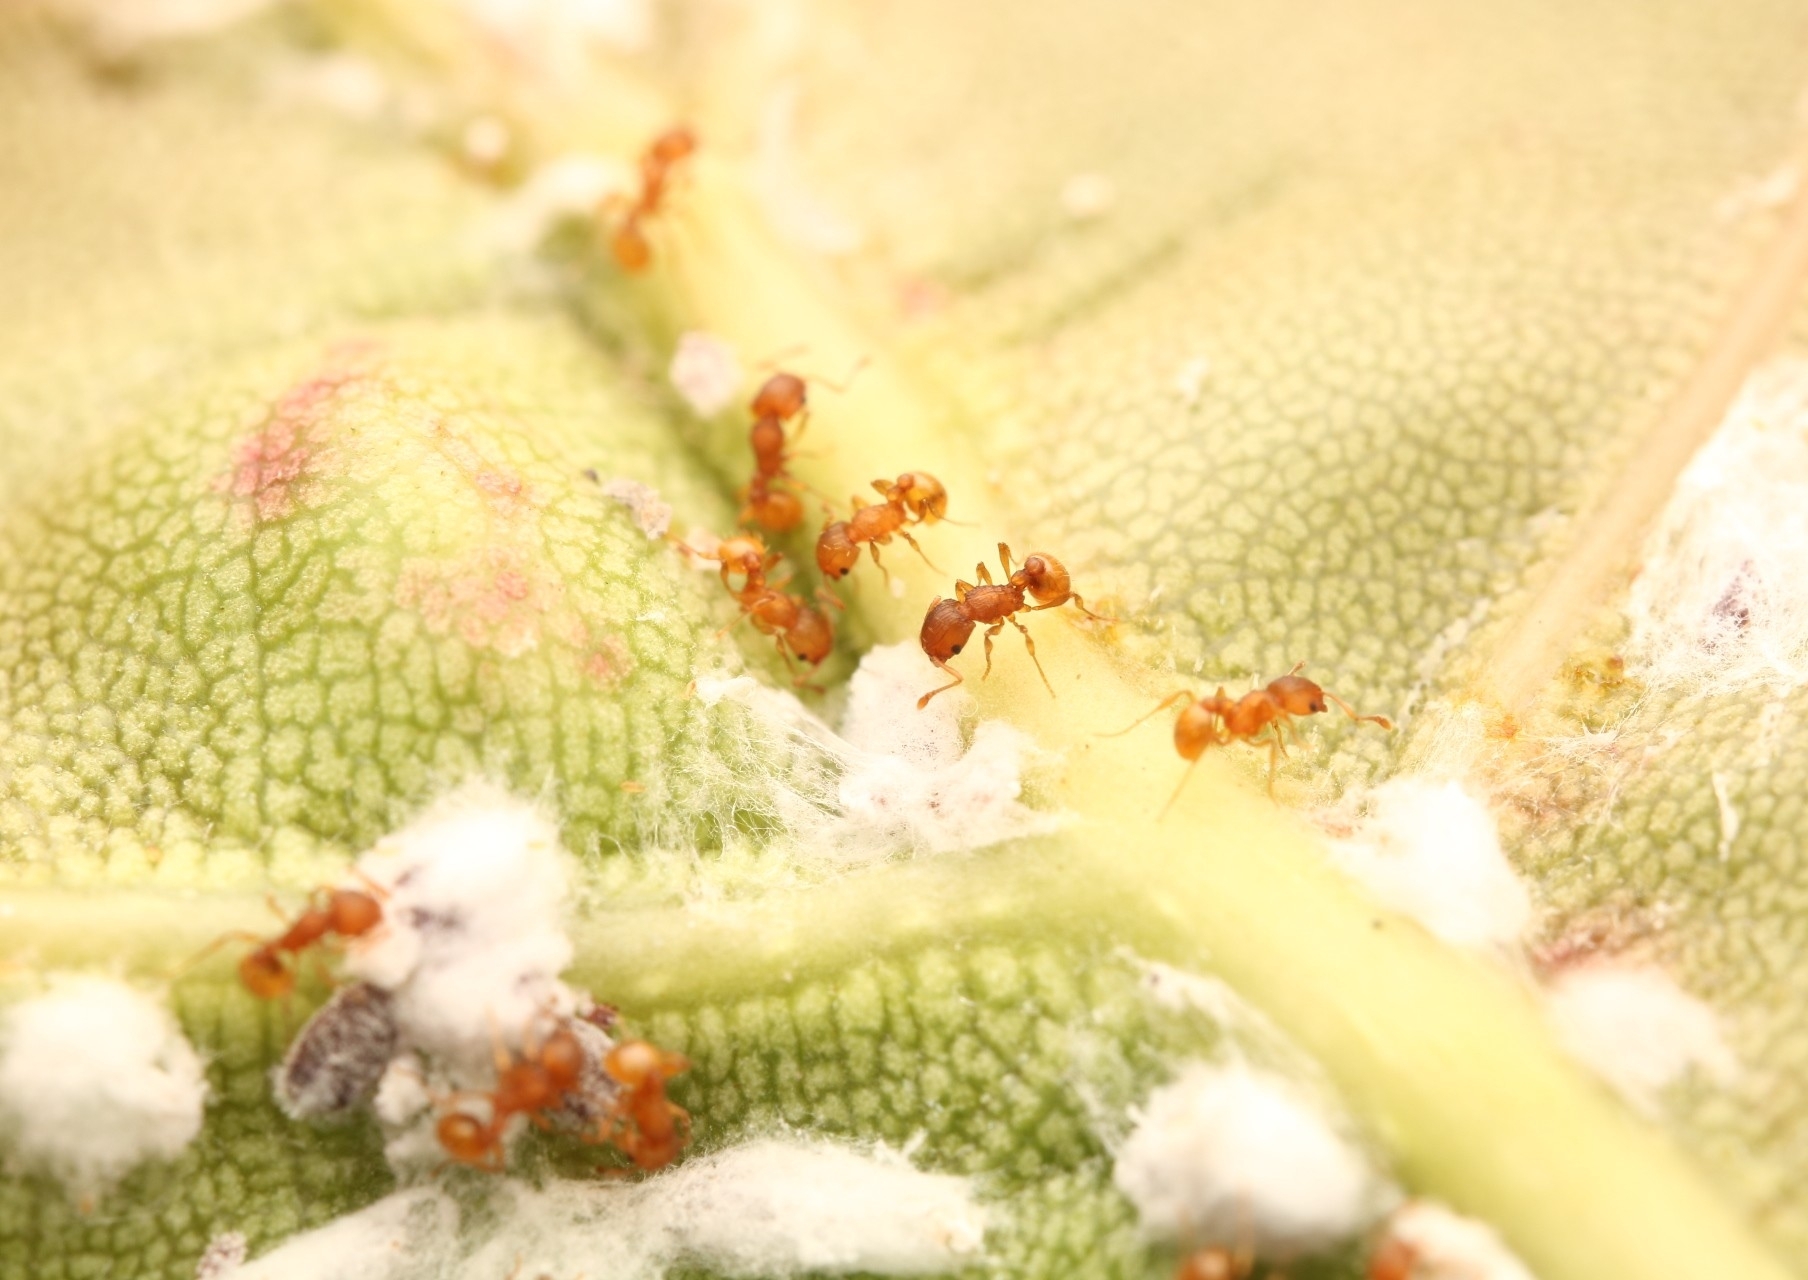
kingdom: Animalia
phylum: Arthropoda
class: Insecta
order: Hymenoptera
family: Formicidae
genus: Wasmannia
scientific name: Wasmannia auropunctata
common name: Little fire ant
